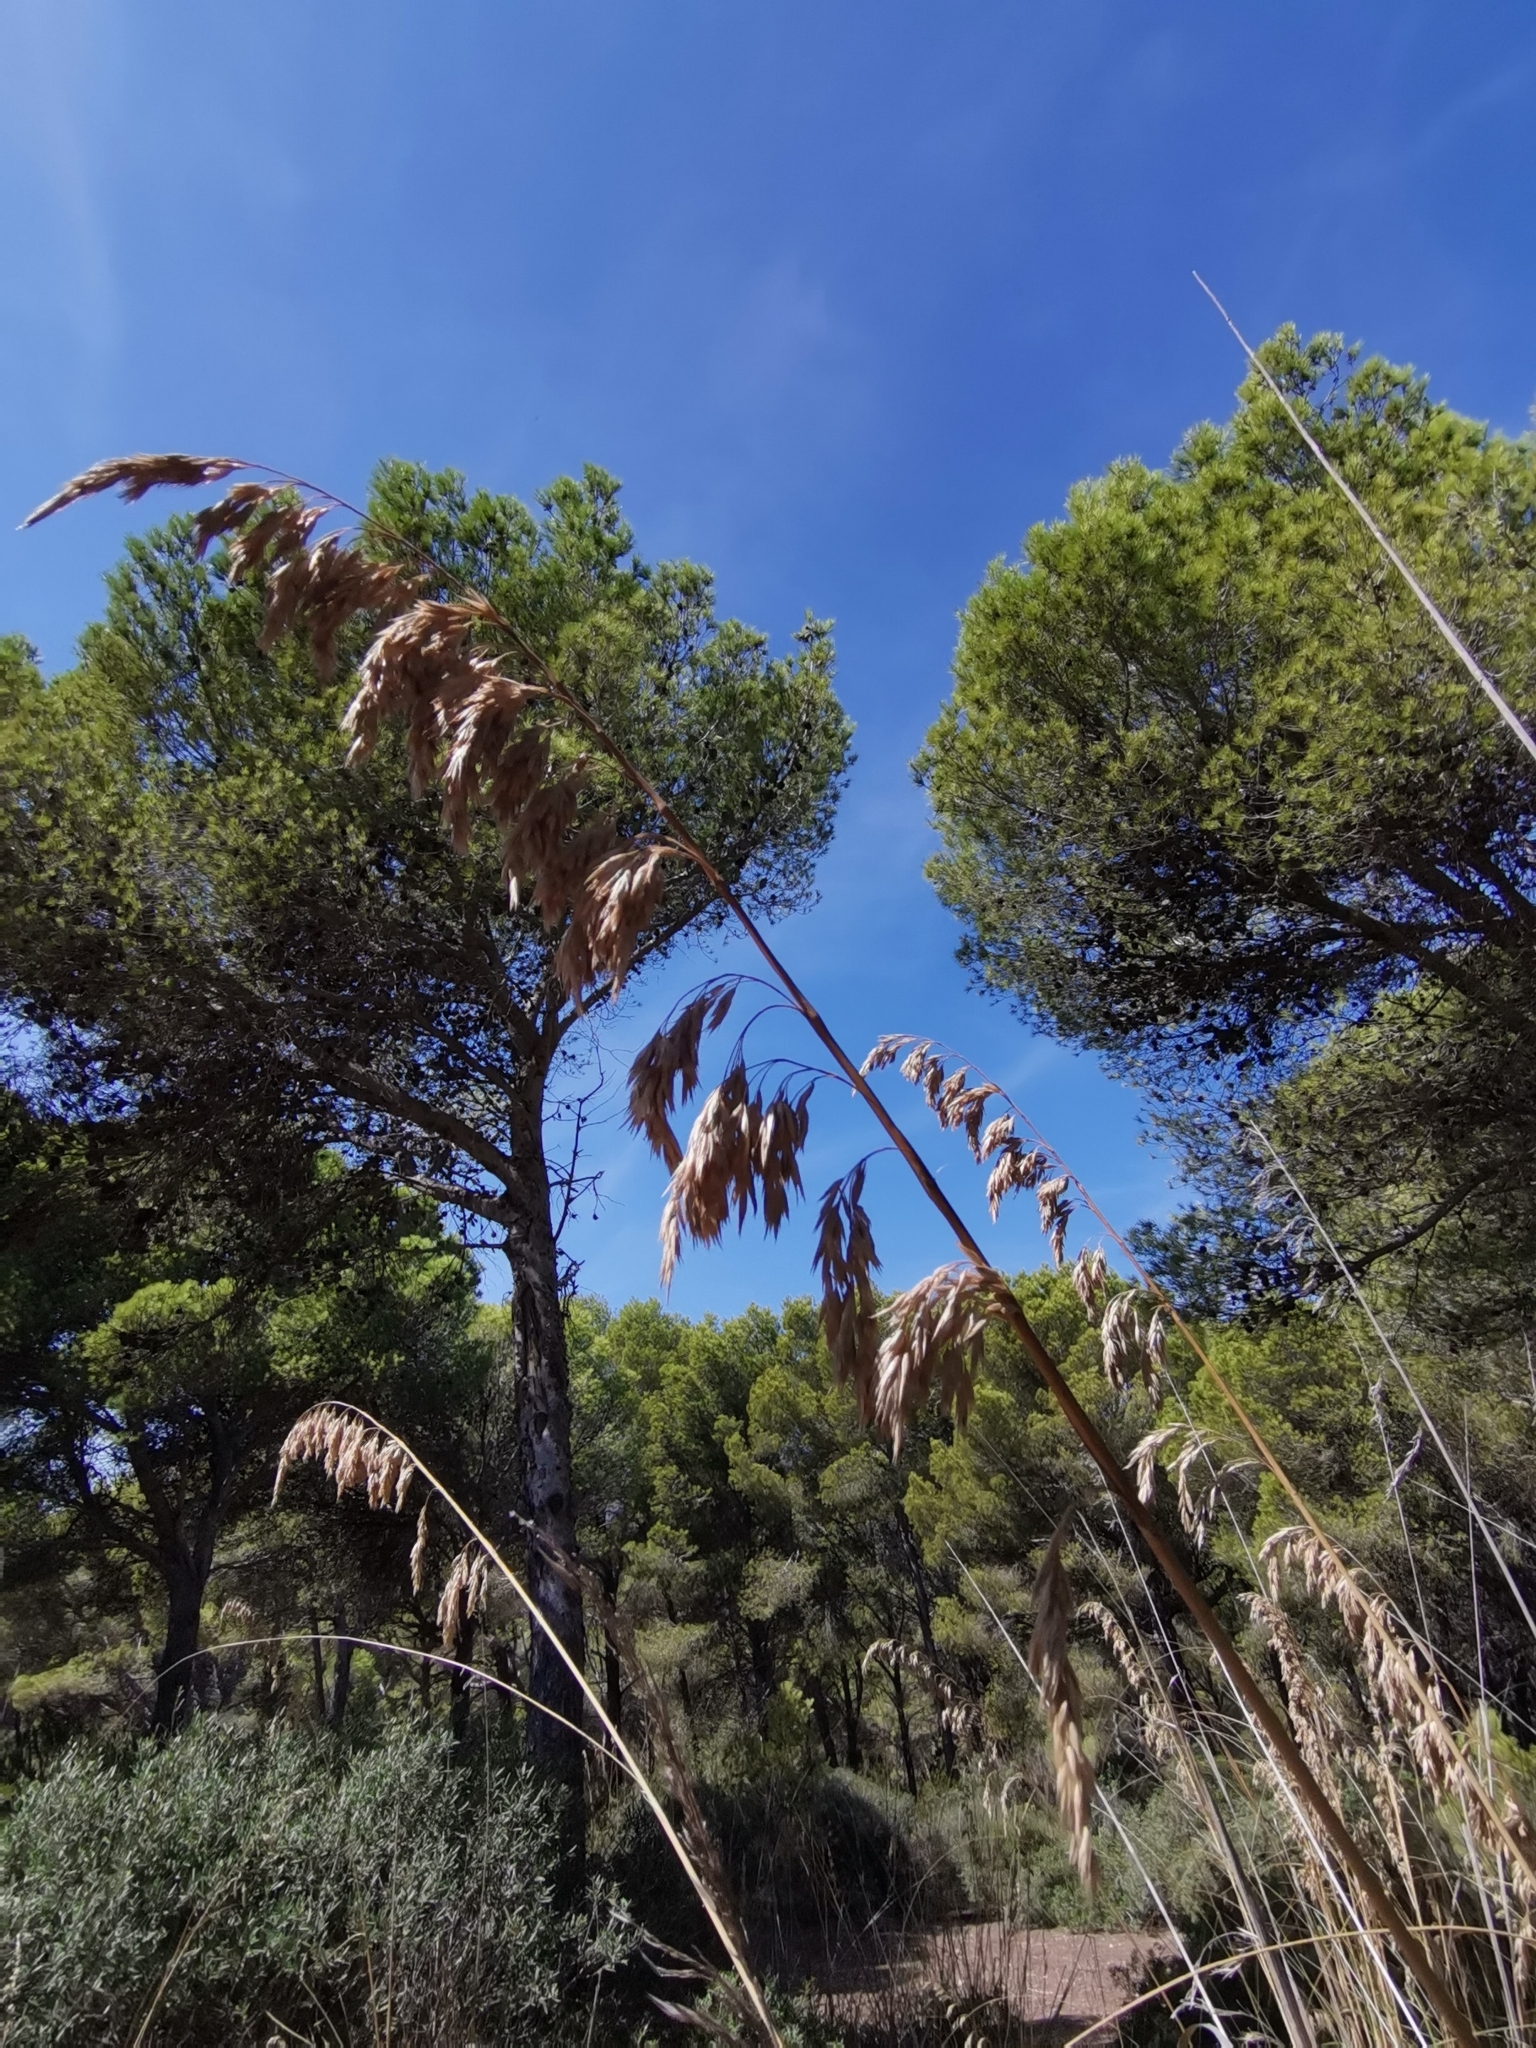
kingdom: Plantae
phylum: Tracheophyta
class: Liliopsida
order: Poales
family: Poaceae
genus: Ampelodesmos
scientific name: Ampelodesmos mauritanicus
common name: Mauritanian grass
